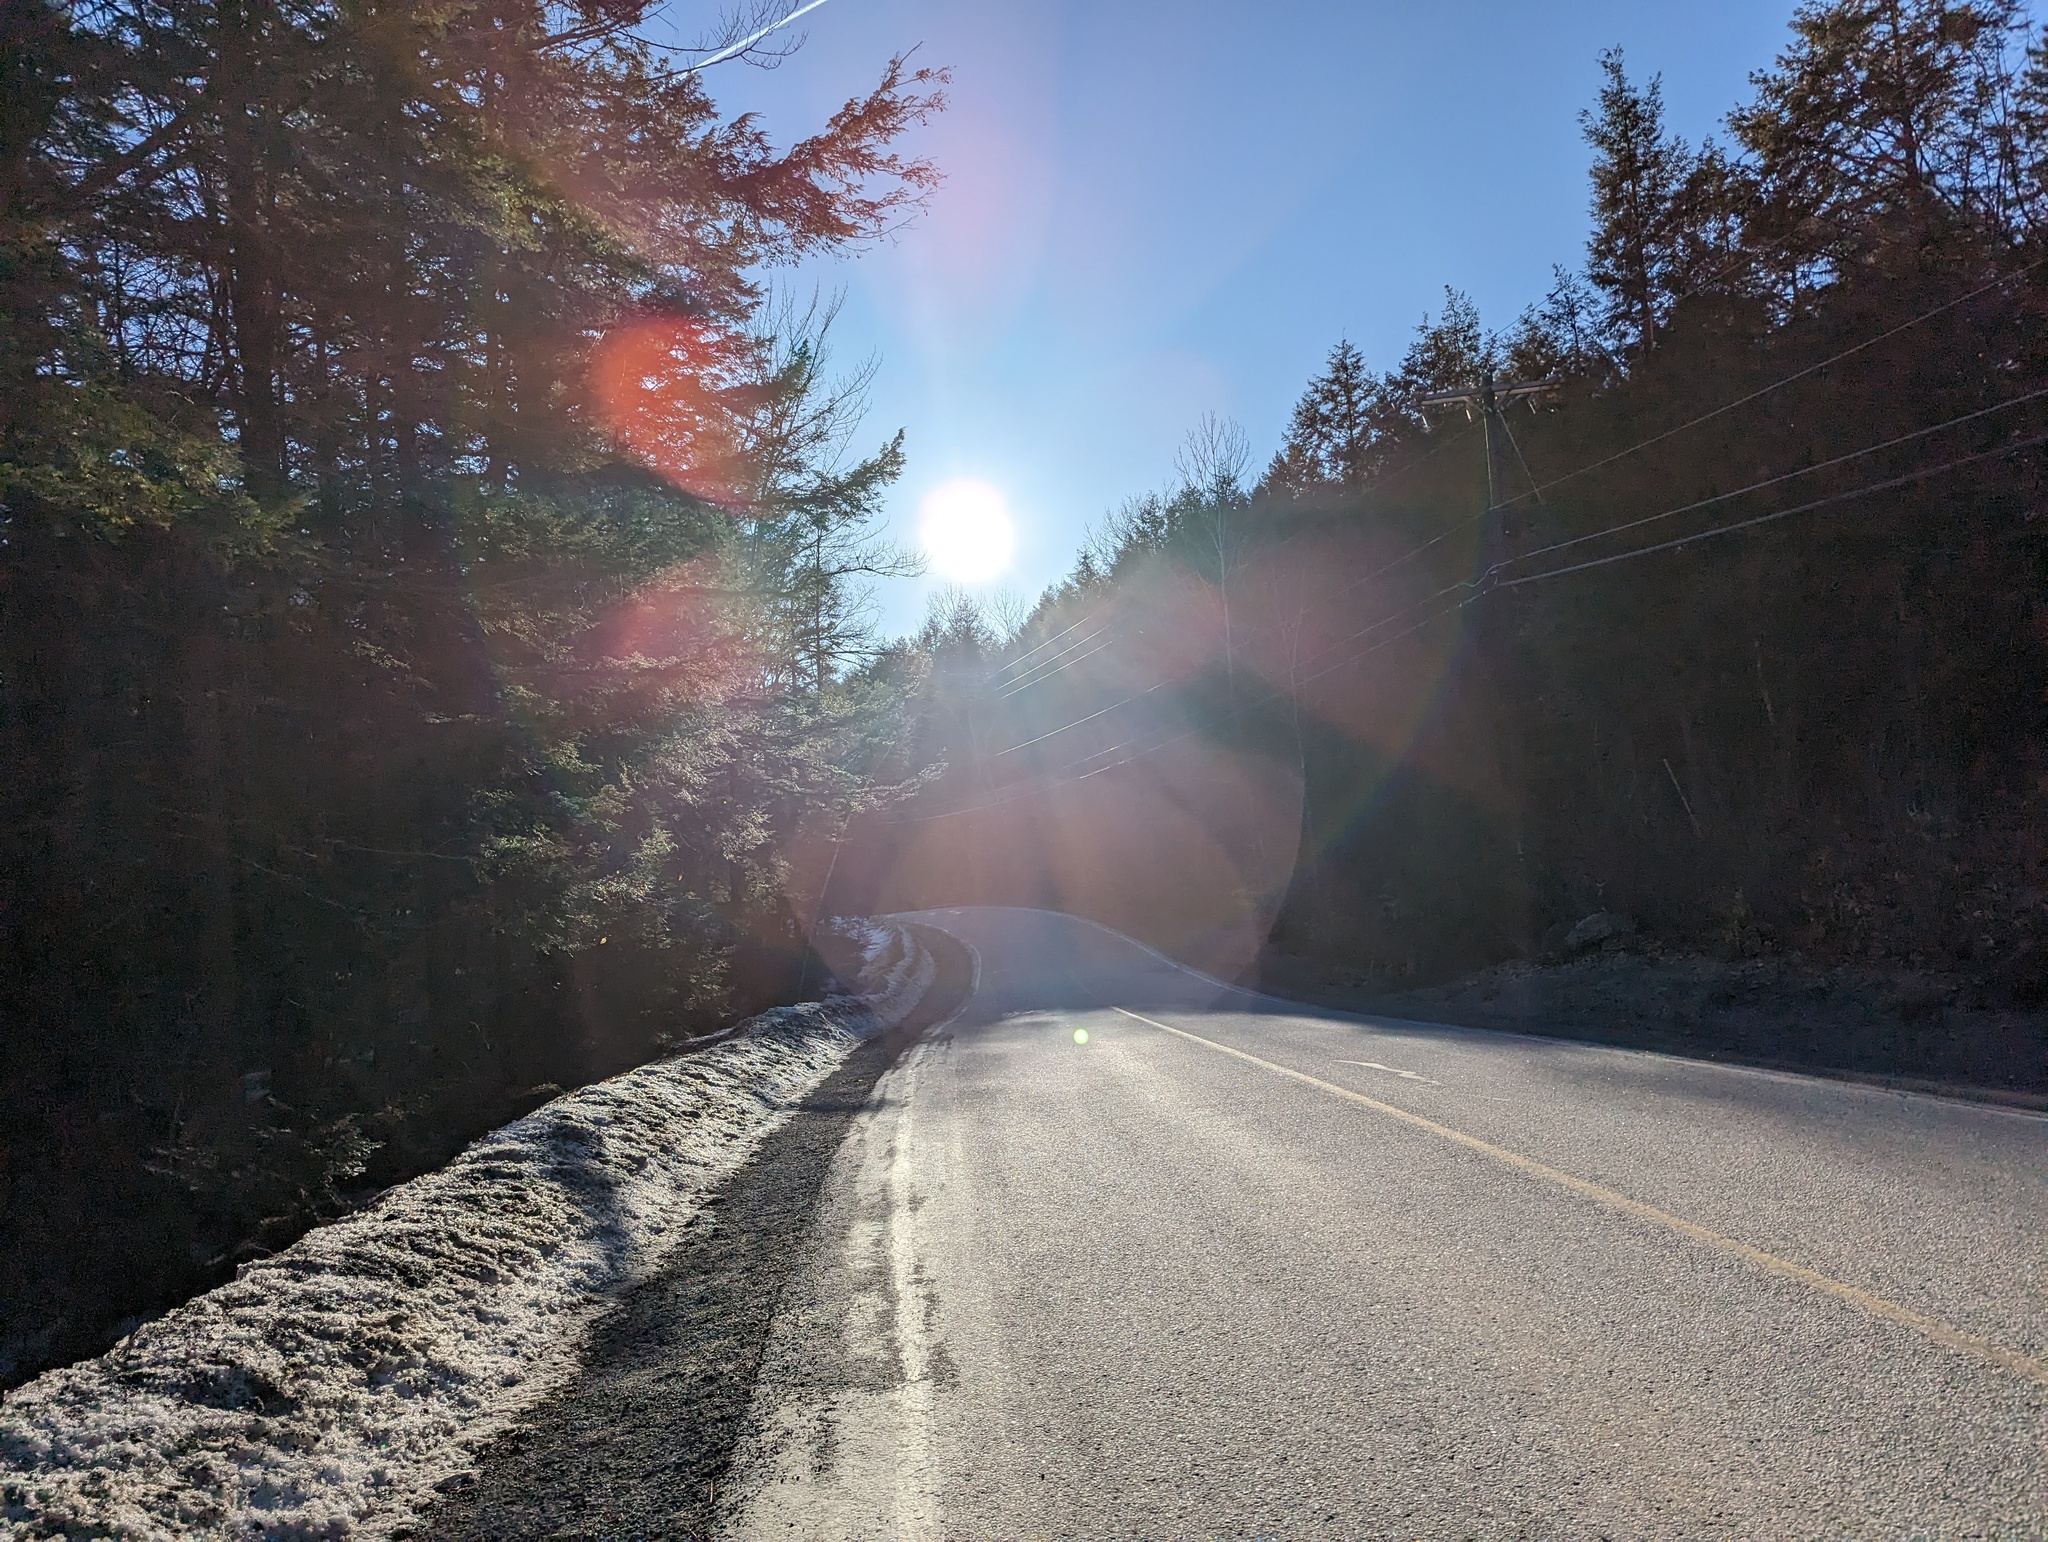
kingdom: Plantae
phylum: Tracheophyta
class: Pinopsida
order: Pinales
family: Pinaceae
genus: Tsuga
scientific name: Tsuga canadensis
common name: Eastern hemlock
